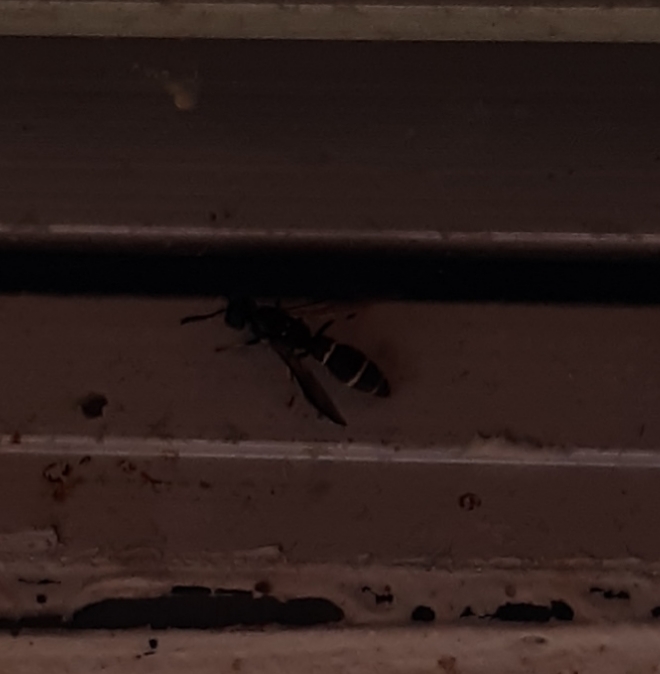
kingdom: Animalia
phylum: Arthropoda
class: Insecta
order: Hymenoptera
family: Eumenidae
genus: Symmorphus
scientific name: Symmorphus
